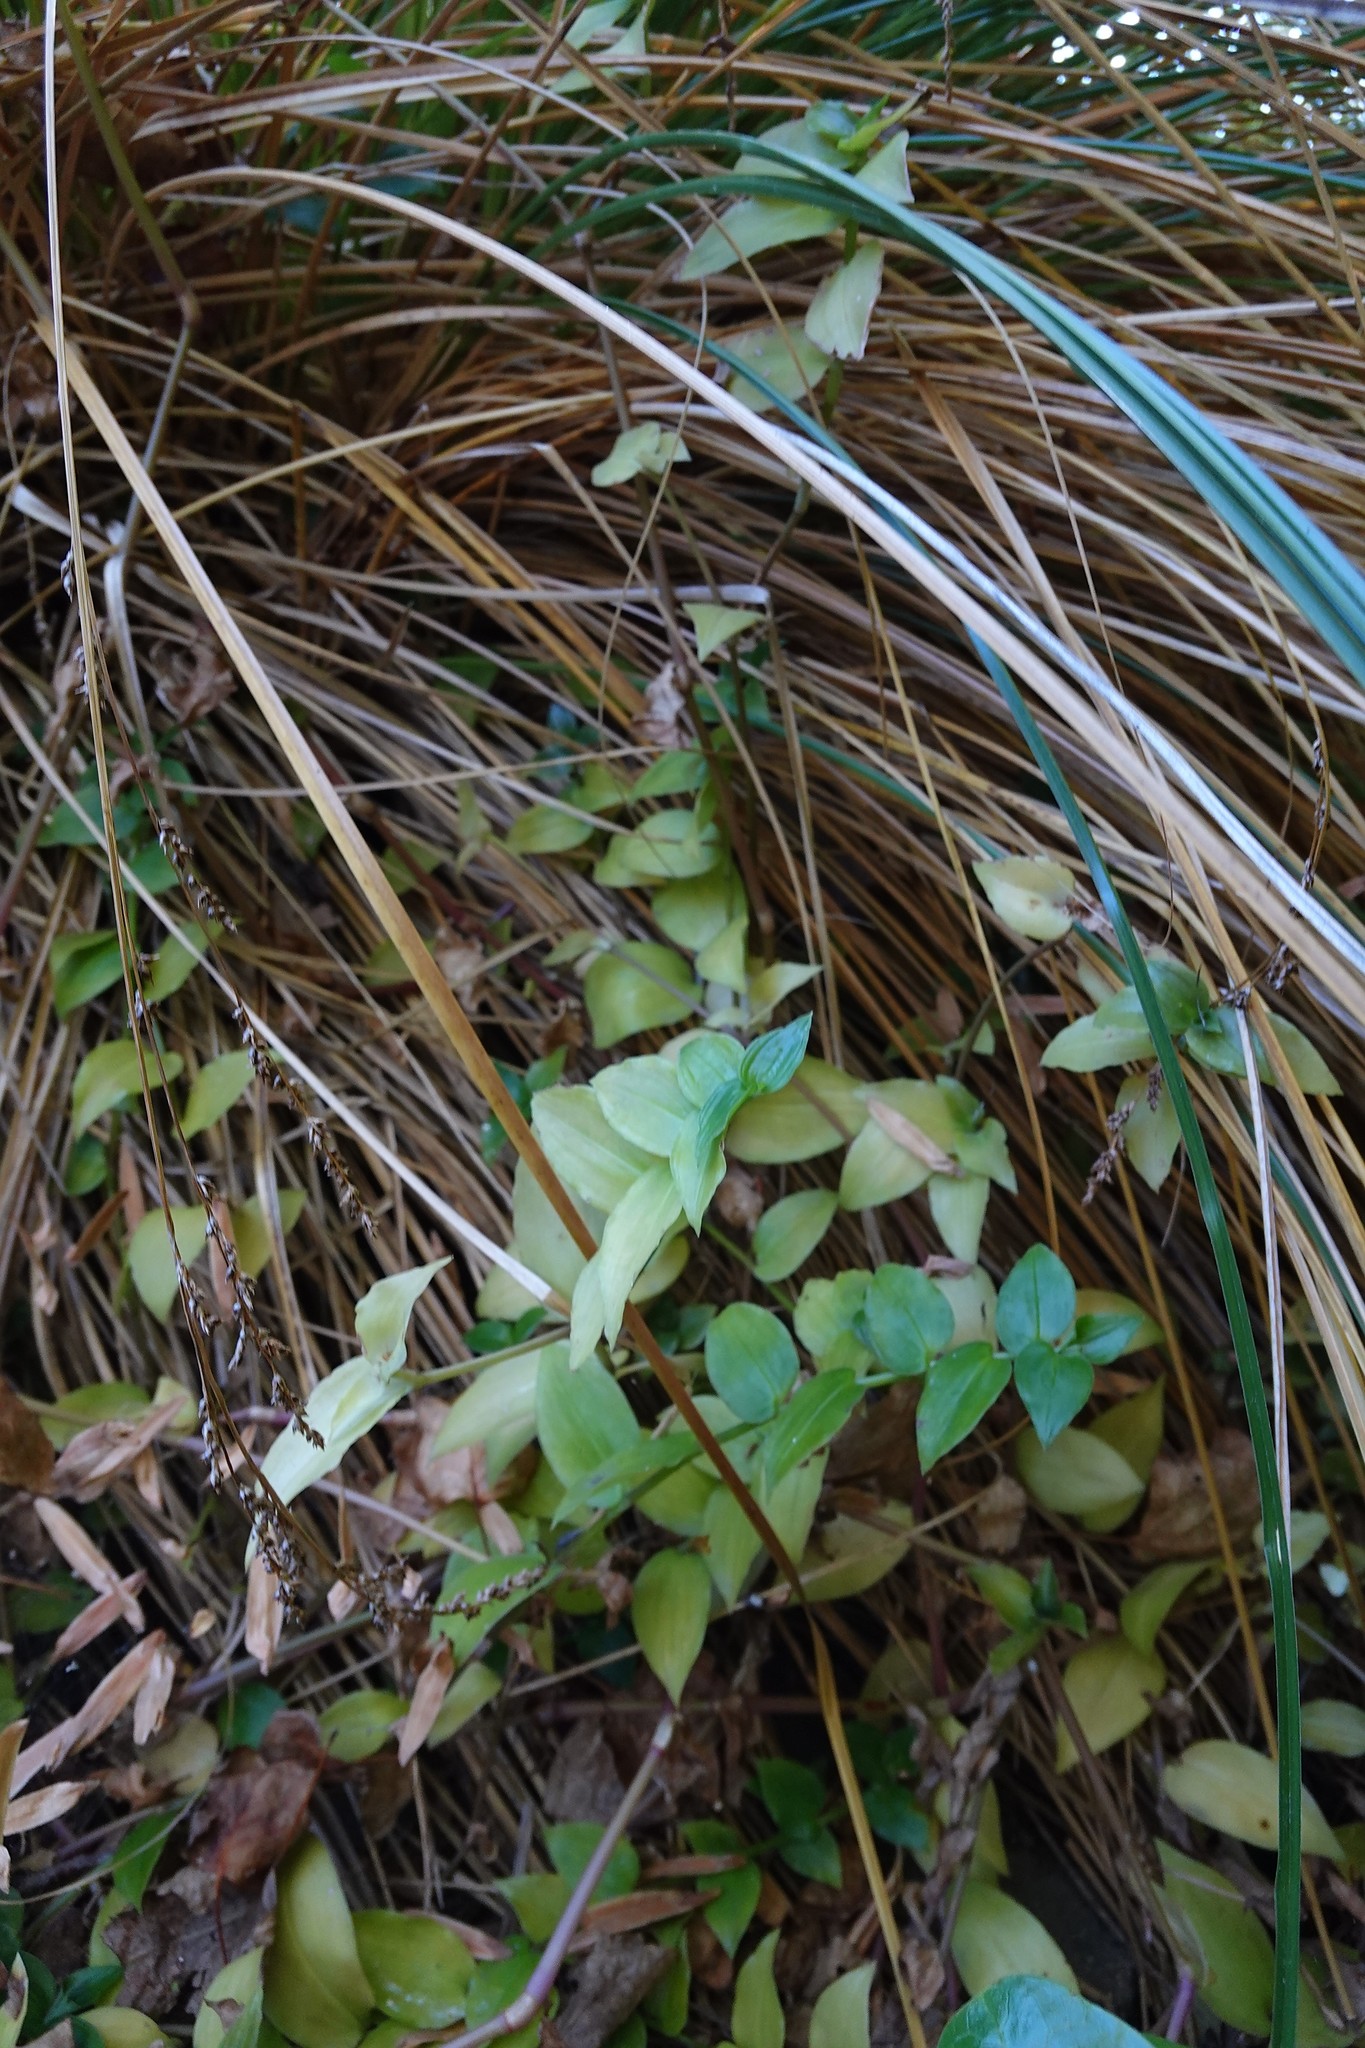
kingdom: Plantae
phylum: Tracheophyta
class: Liliopsida
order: Commelinales
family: Commelinaceae
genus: Tradescantia
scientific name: Tradescantia fluminensis
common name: Wandering-jew
